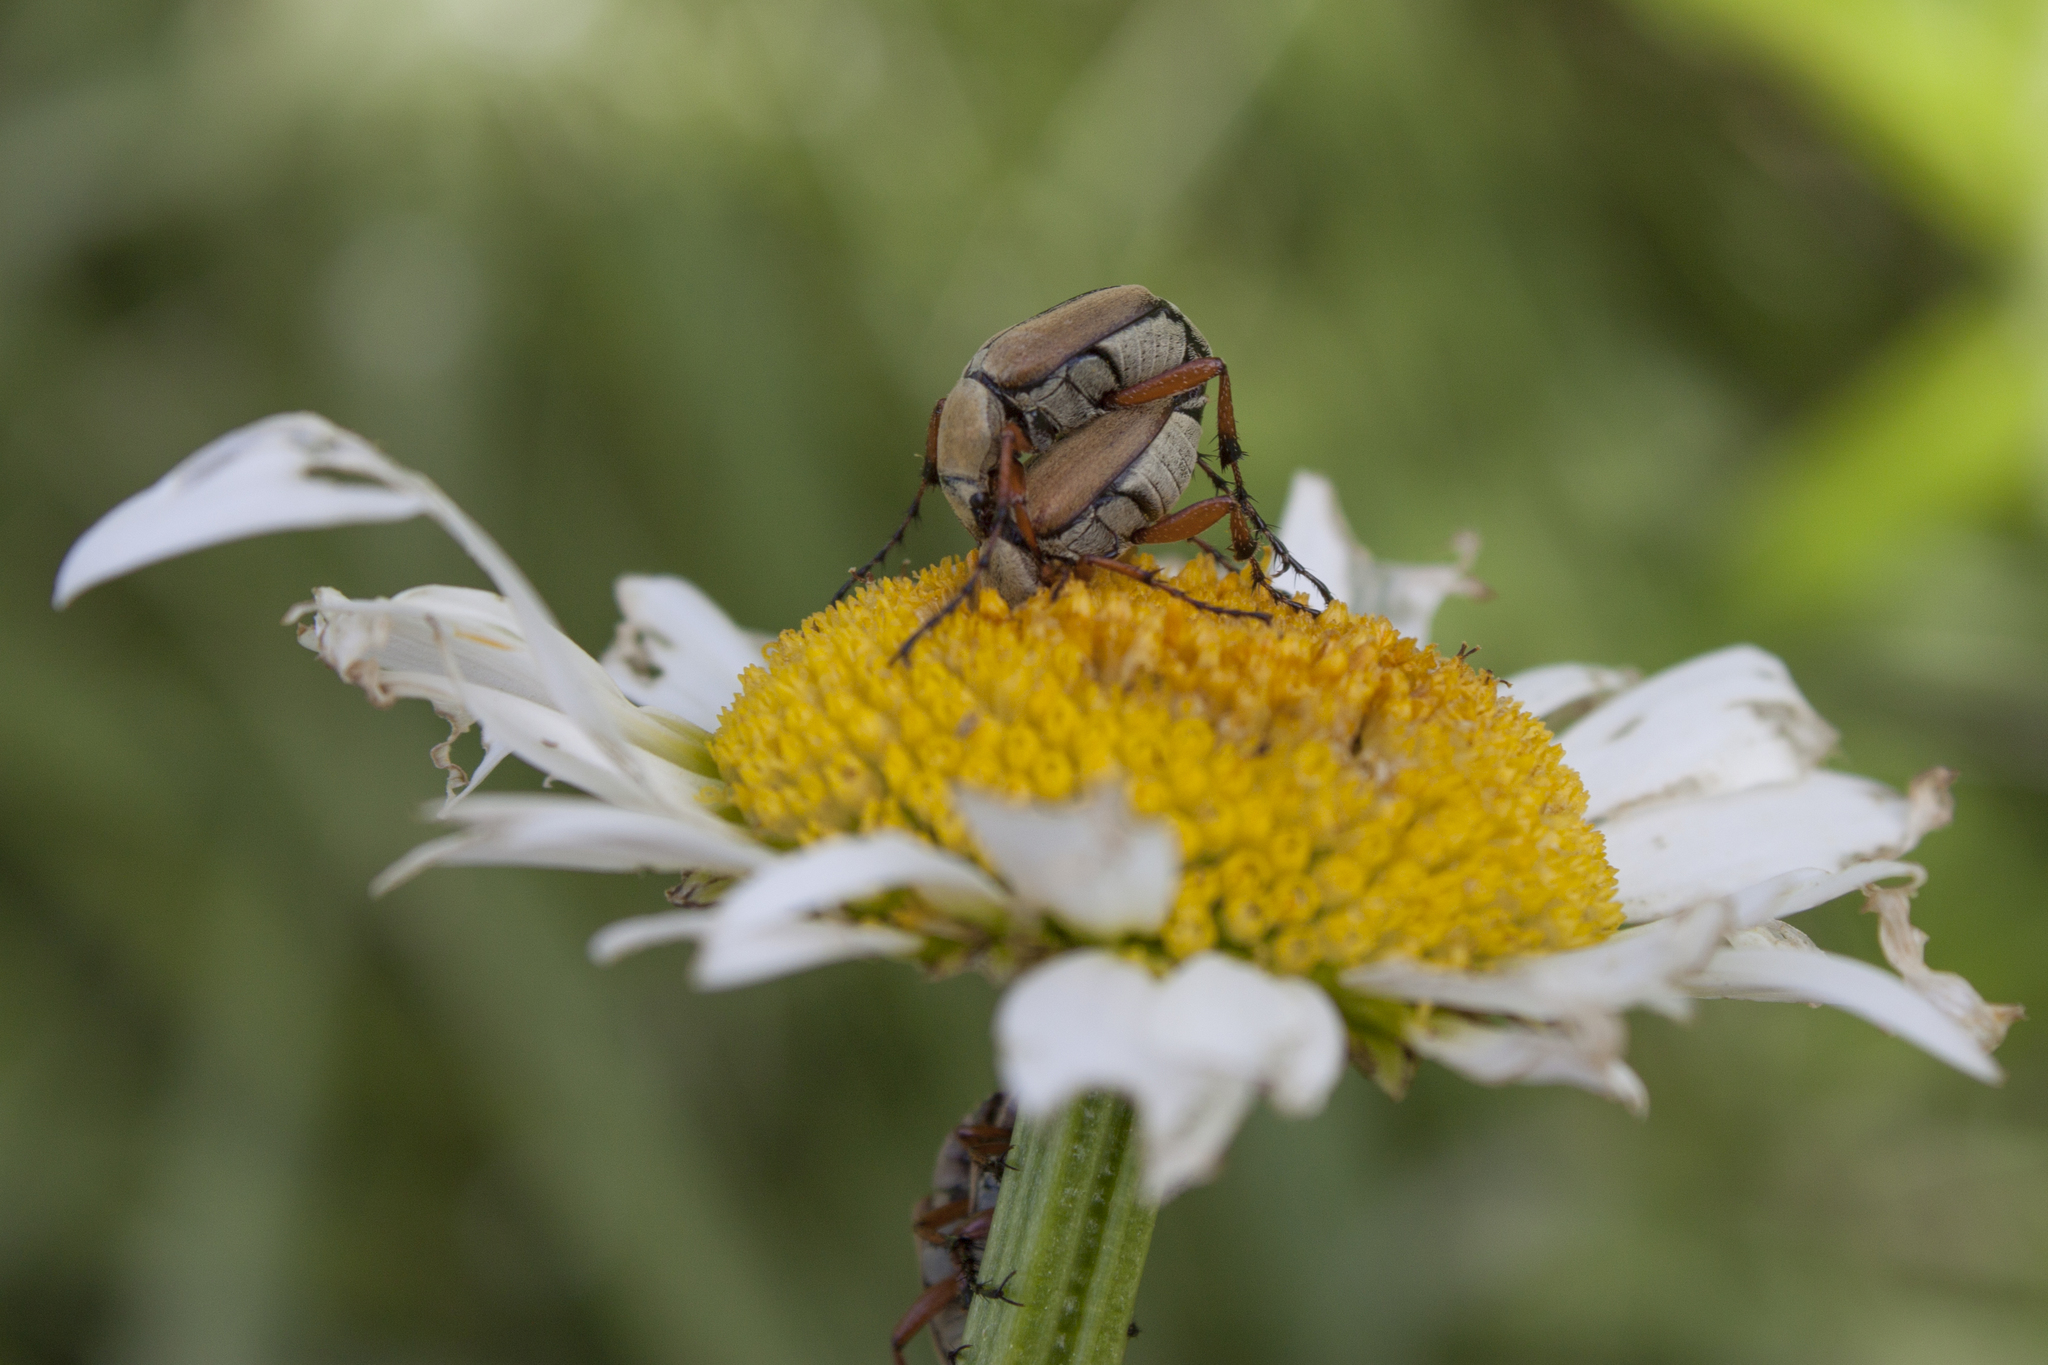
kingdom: Animalia
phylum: Arthropoda
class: Insecta
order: Coleoptera
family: Scarabaeidae
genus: Macrodactylus
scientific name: Macrodactylus subspinosus
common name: American rose chafer
